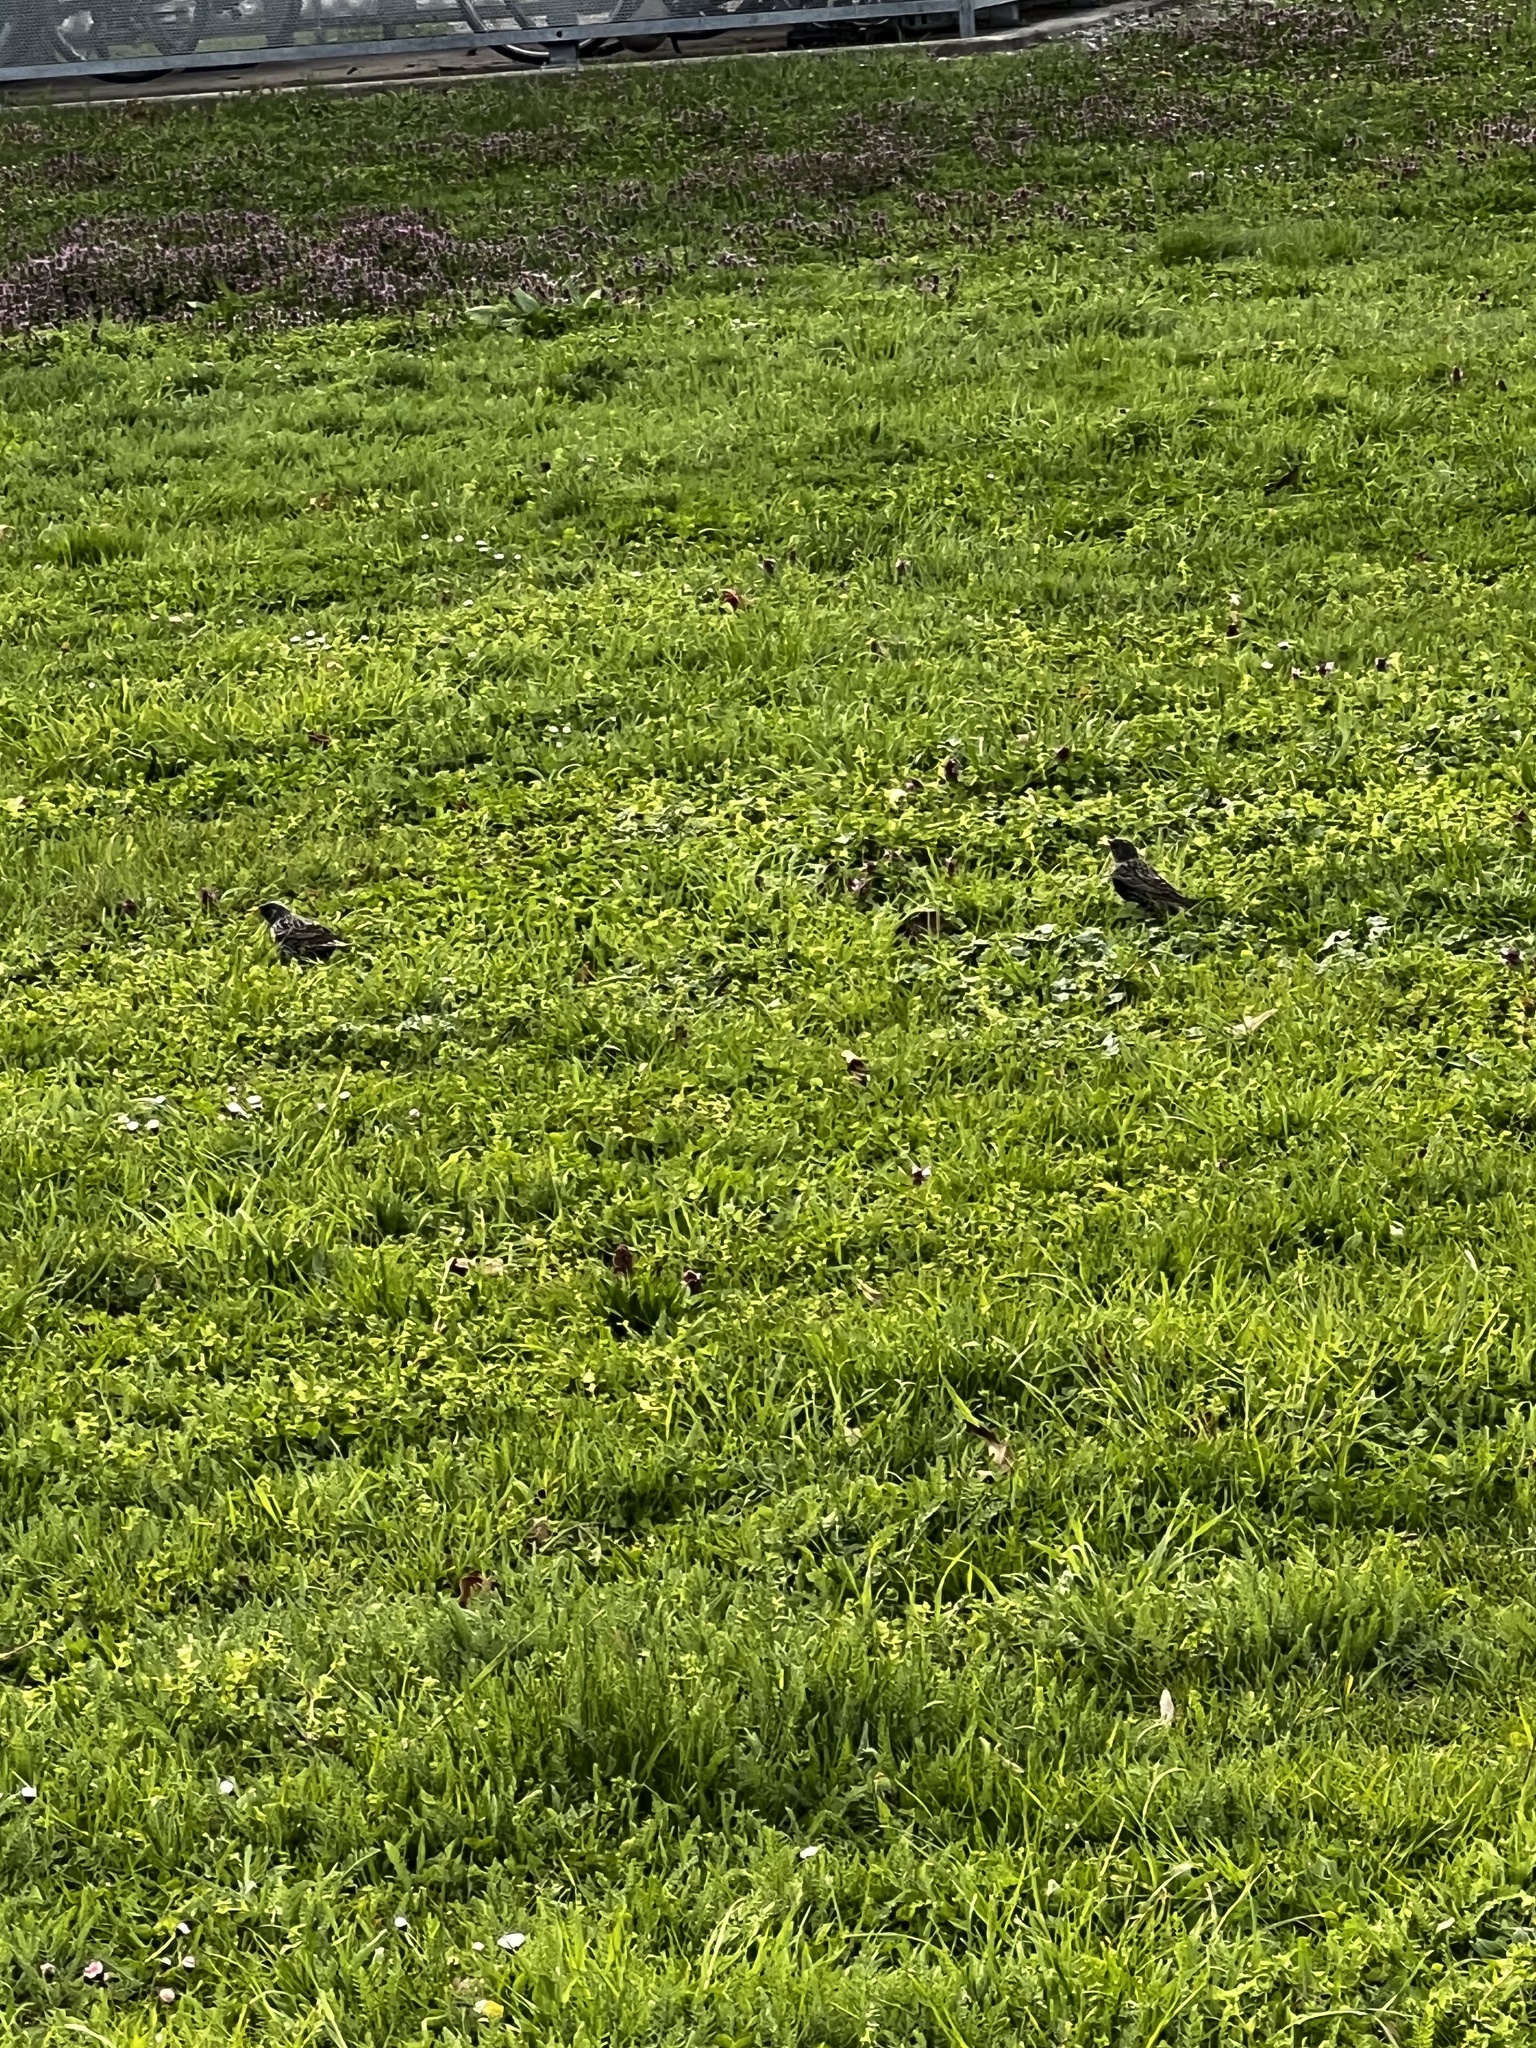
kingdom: Animalia
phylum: Chordata
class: Aves
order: Passeriformes
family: Sturnidae
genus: Sturnus
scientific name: Sturnus vulgaris
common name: Common starling
